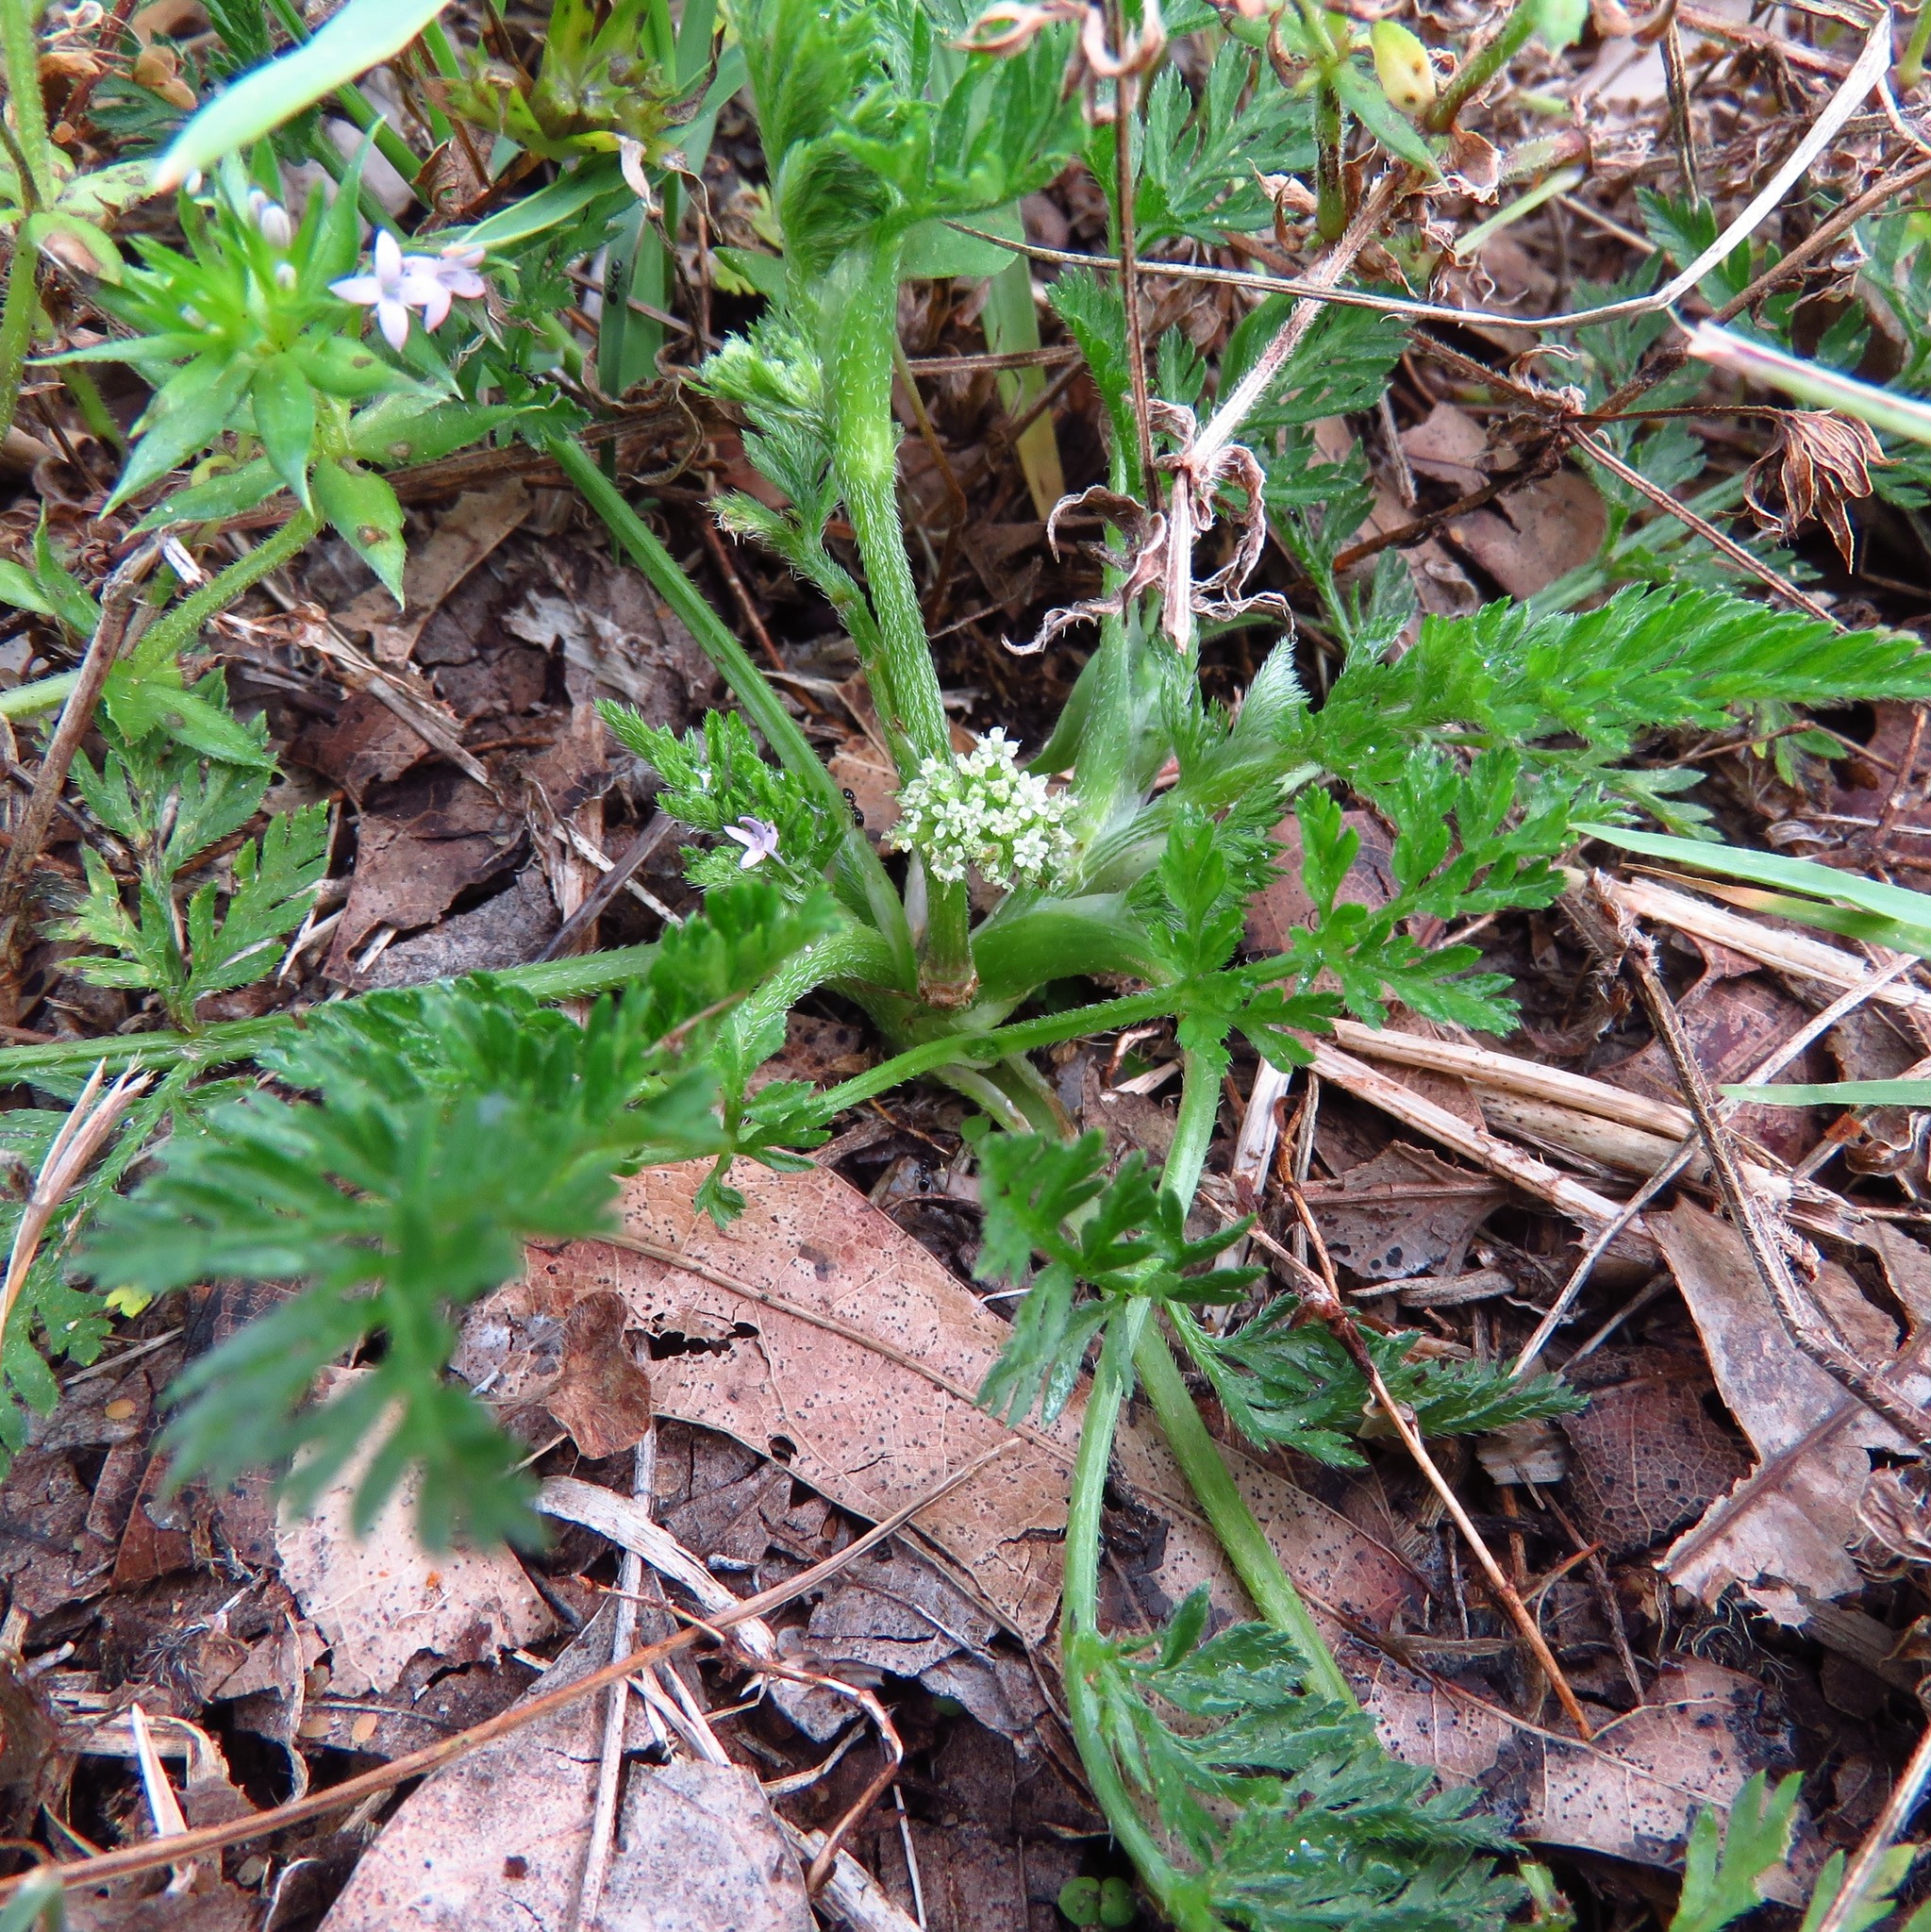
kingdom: Plantae
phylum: Tracheophyta
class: Magnoliopsida
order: Apiales
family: Apiaceae
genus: Torilis
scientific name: Torilis nodosa
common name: Knotted hedge-parsley
